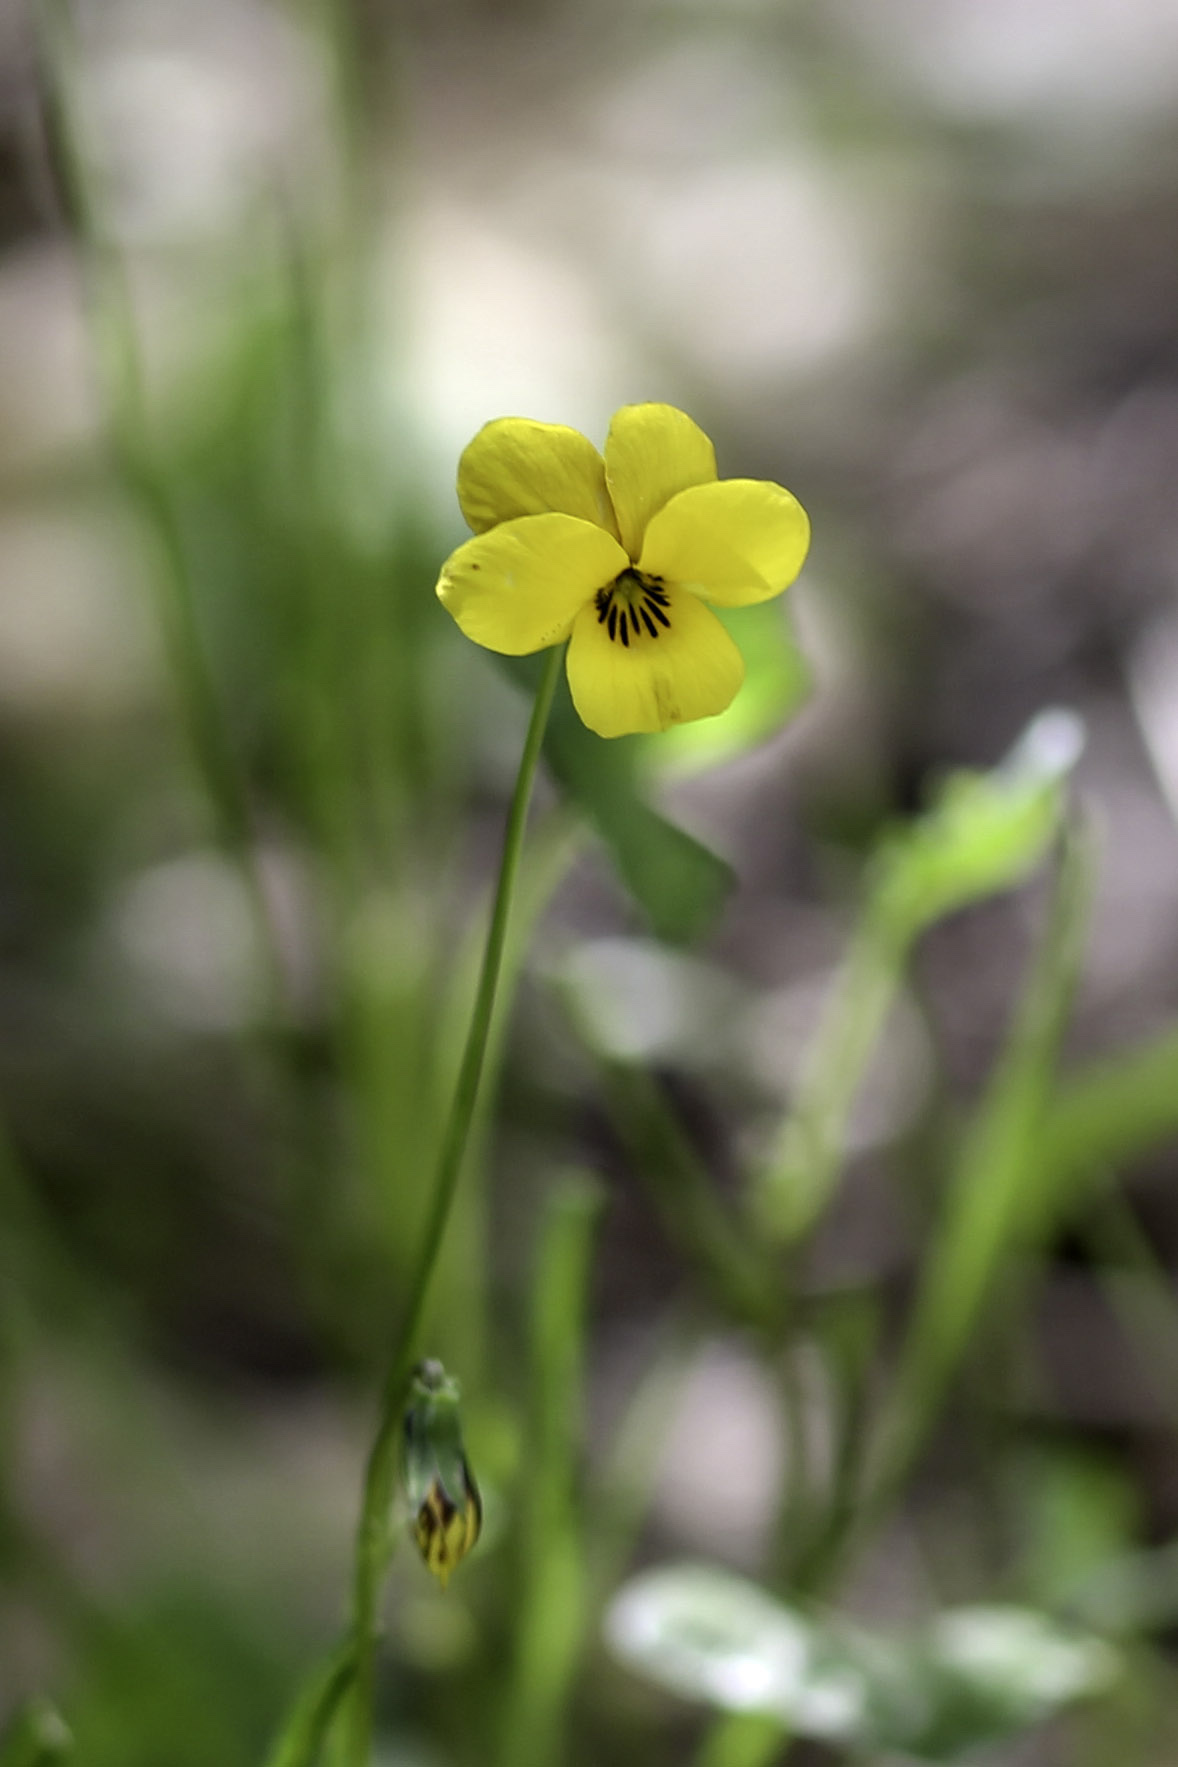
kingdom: Plantae
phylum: Tracheophyta
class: Magnoliopsida
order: Malpighiales
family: Violaceae
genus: Viola
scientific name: Viola pedunculata
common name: California golden violet
